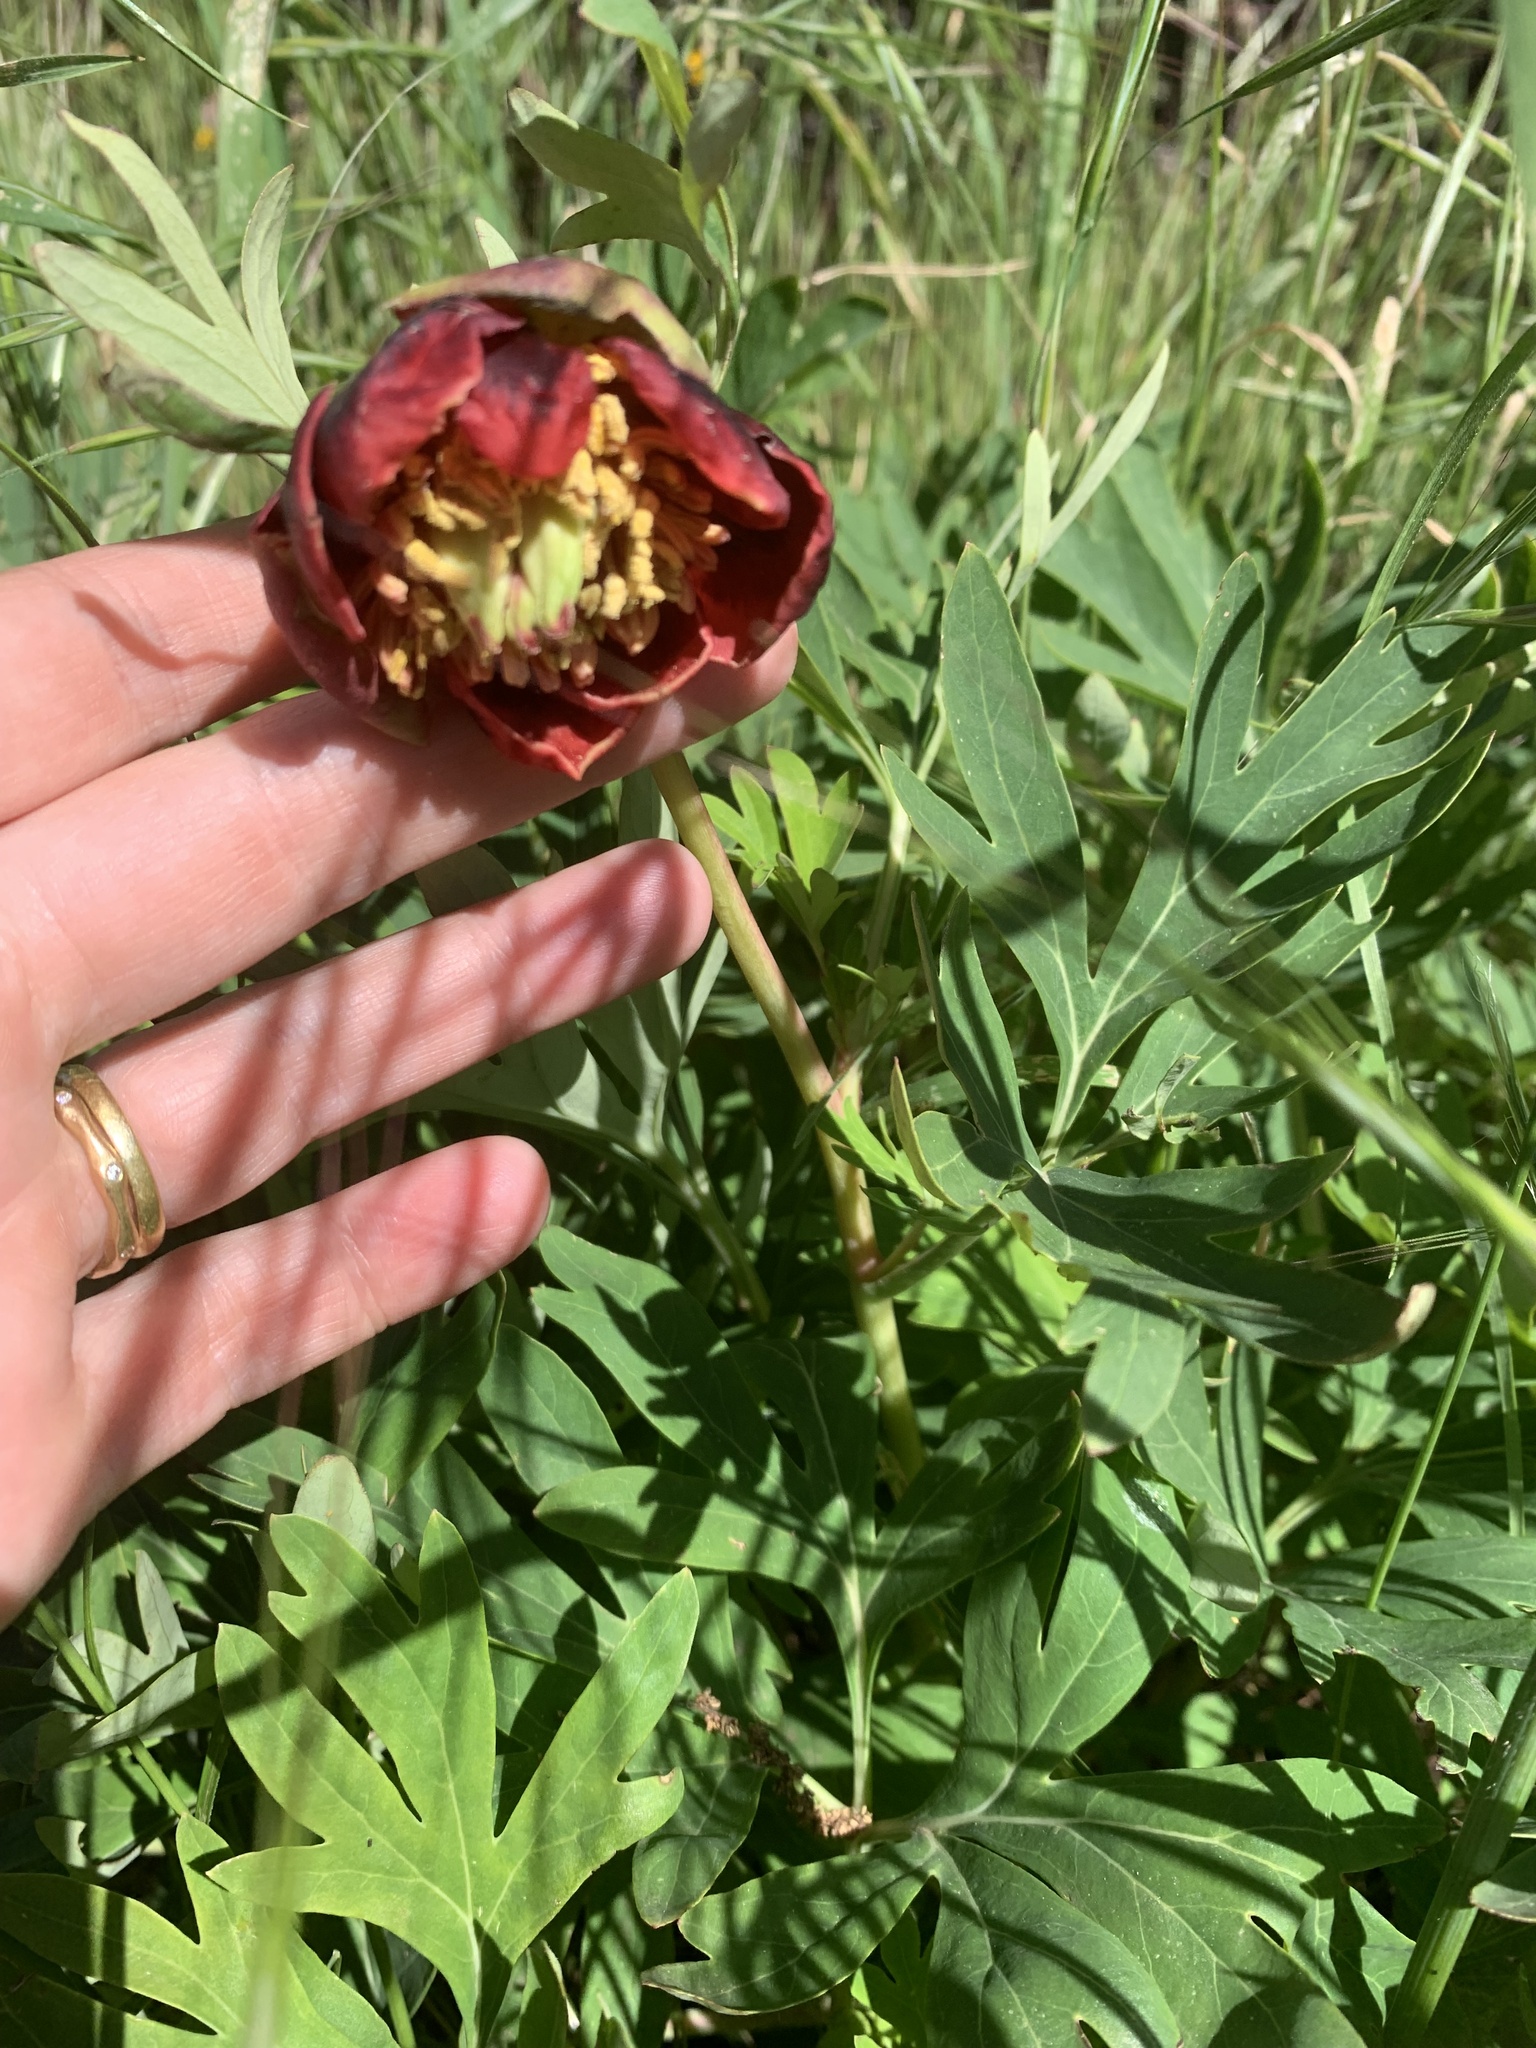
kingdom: Plantae
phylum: Tracheophyta
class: Magnoliopsida
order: Saxifragales
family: Paeoniaceae
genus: Paeonia
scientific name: Paeonia californica
